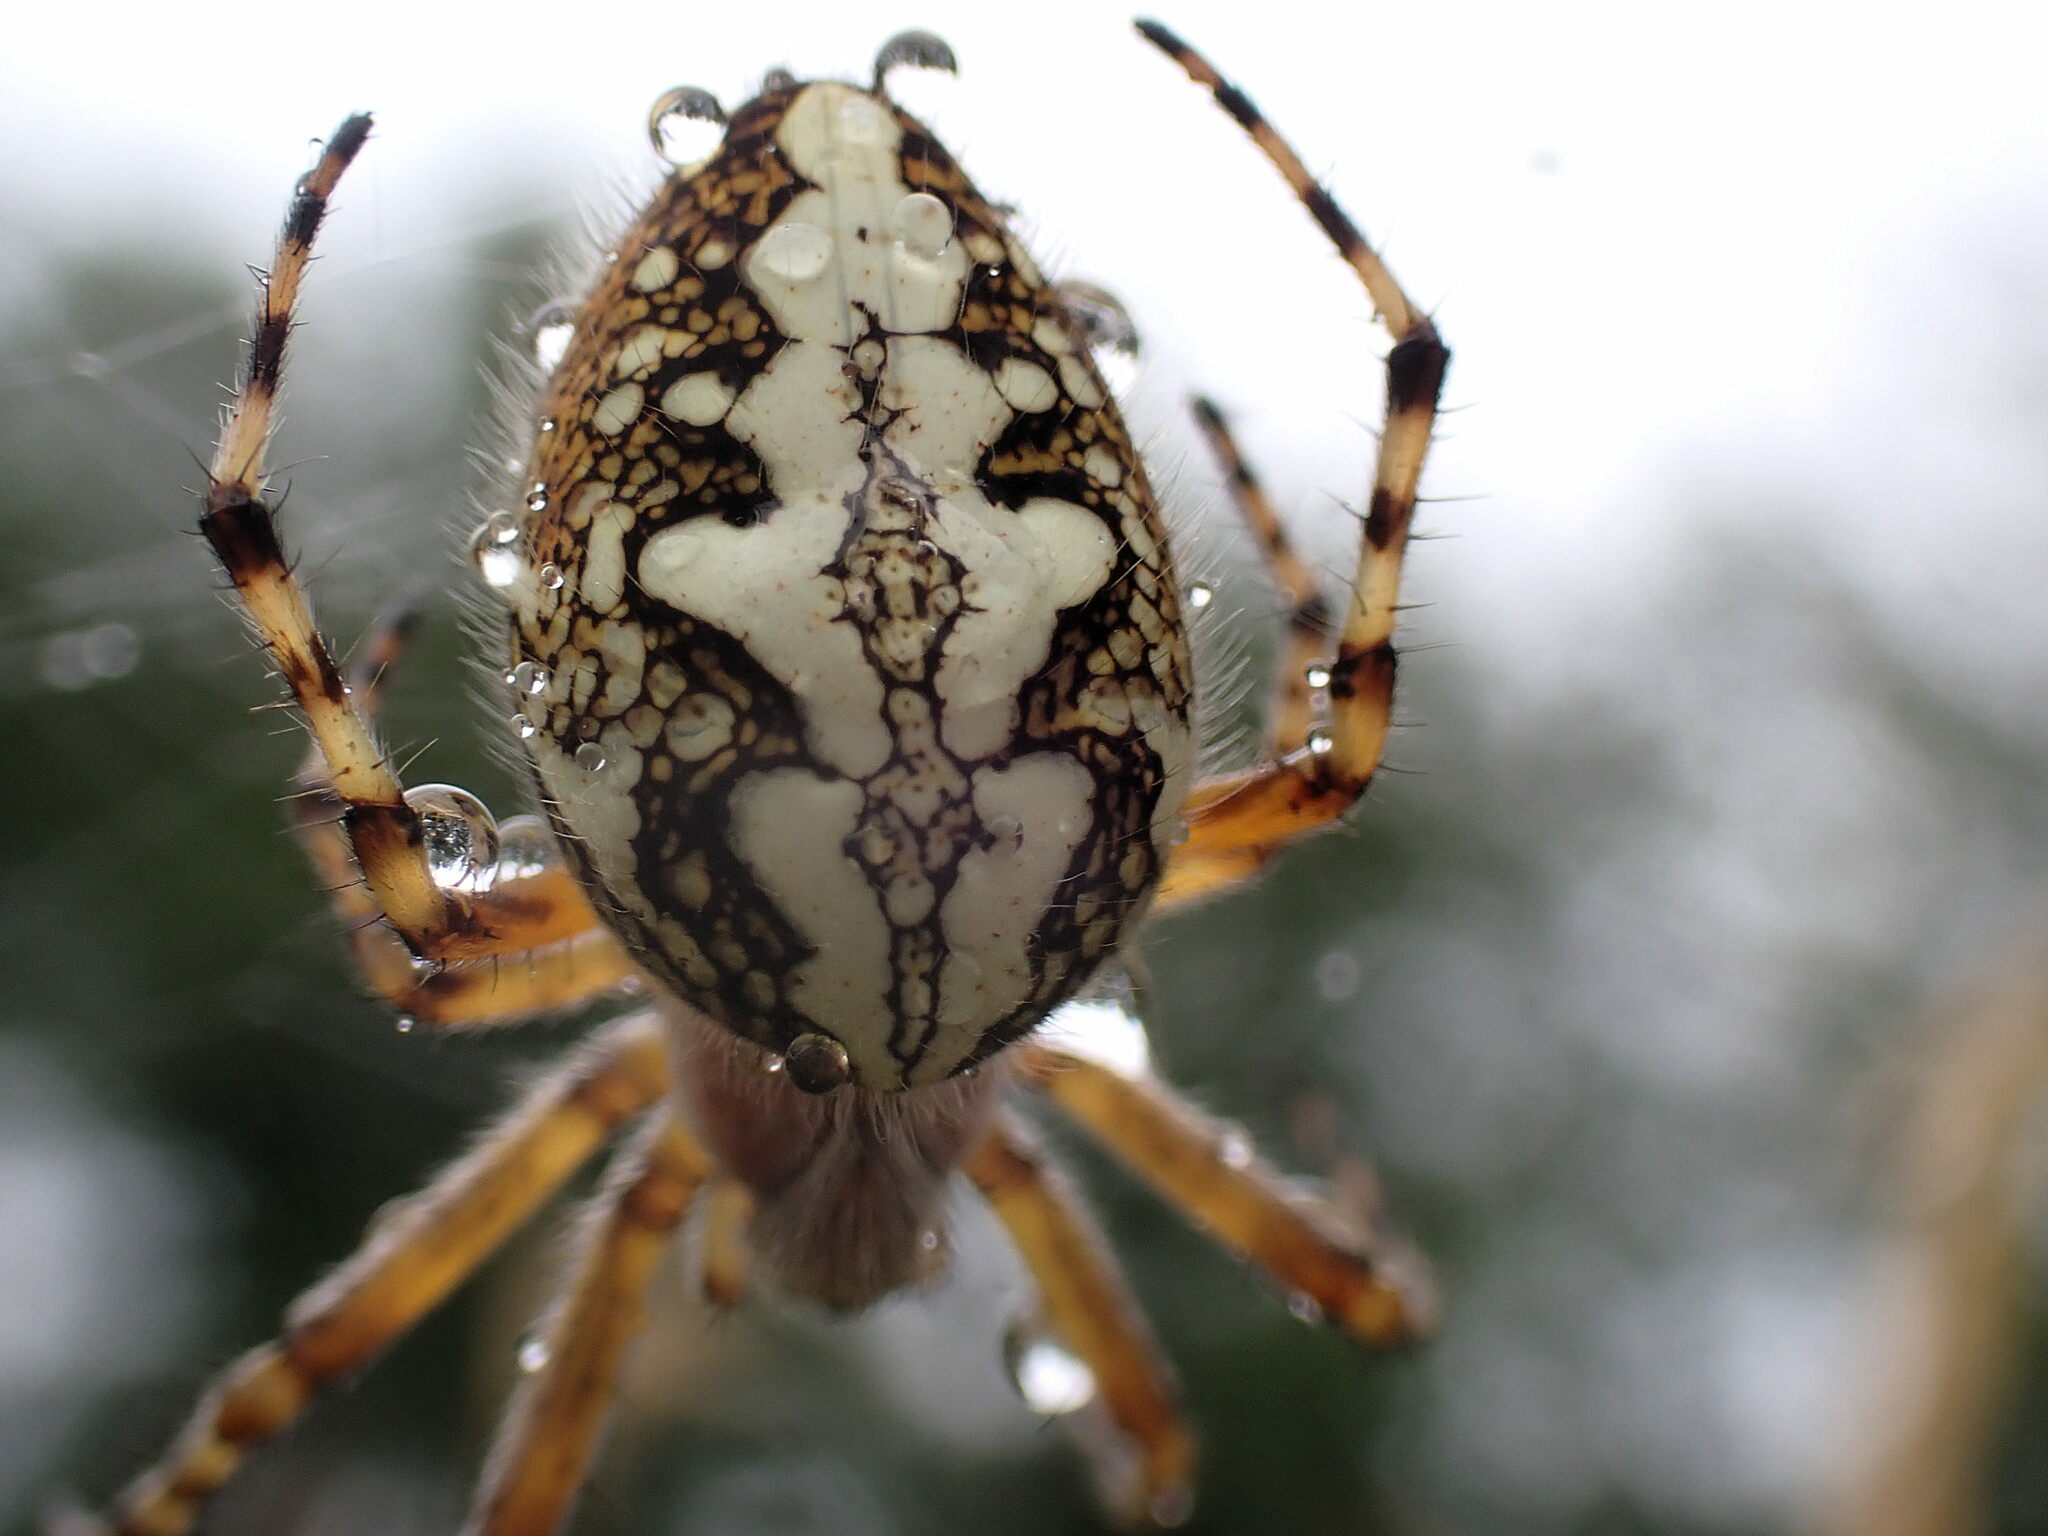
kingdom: Animalia
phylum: Arthropoda
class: Arachnida
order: Araneae
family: Araneidae
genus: Aculepeira
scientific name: Aculepeira ceropegia
